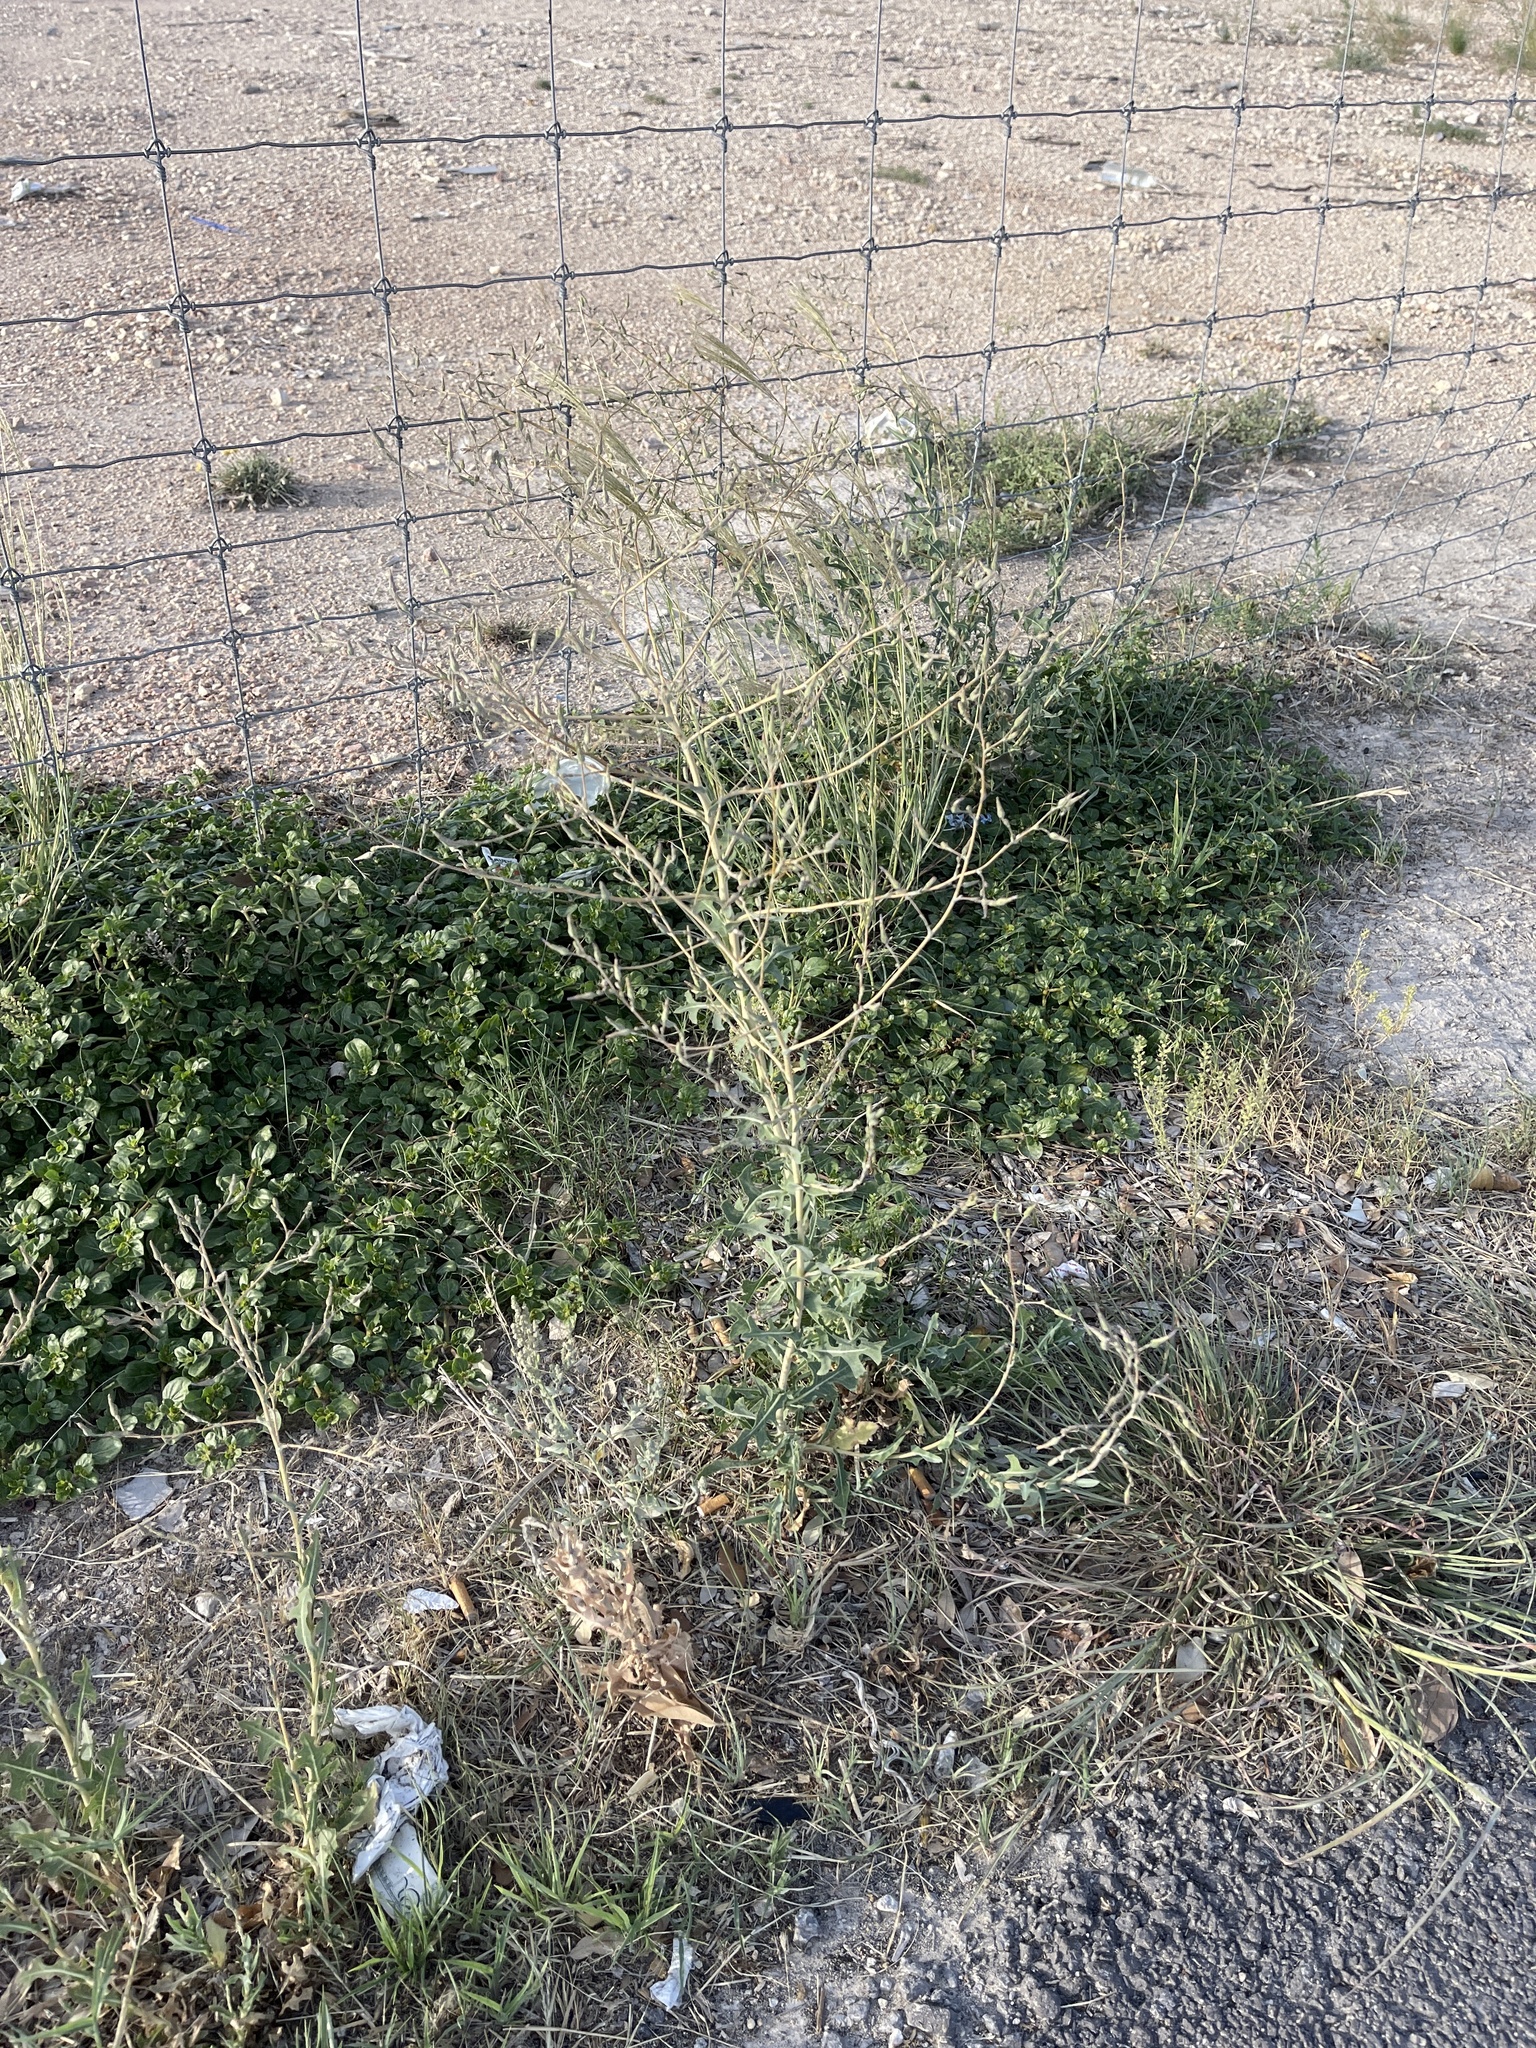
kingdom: Plantae
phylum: Tracheophyta
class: Magnoliopsida
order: Asterales
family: Asteraceae
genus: Lactuca
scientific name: Lactuca serriola
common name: Prickly lettuce
